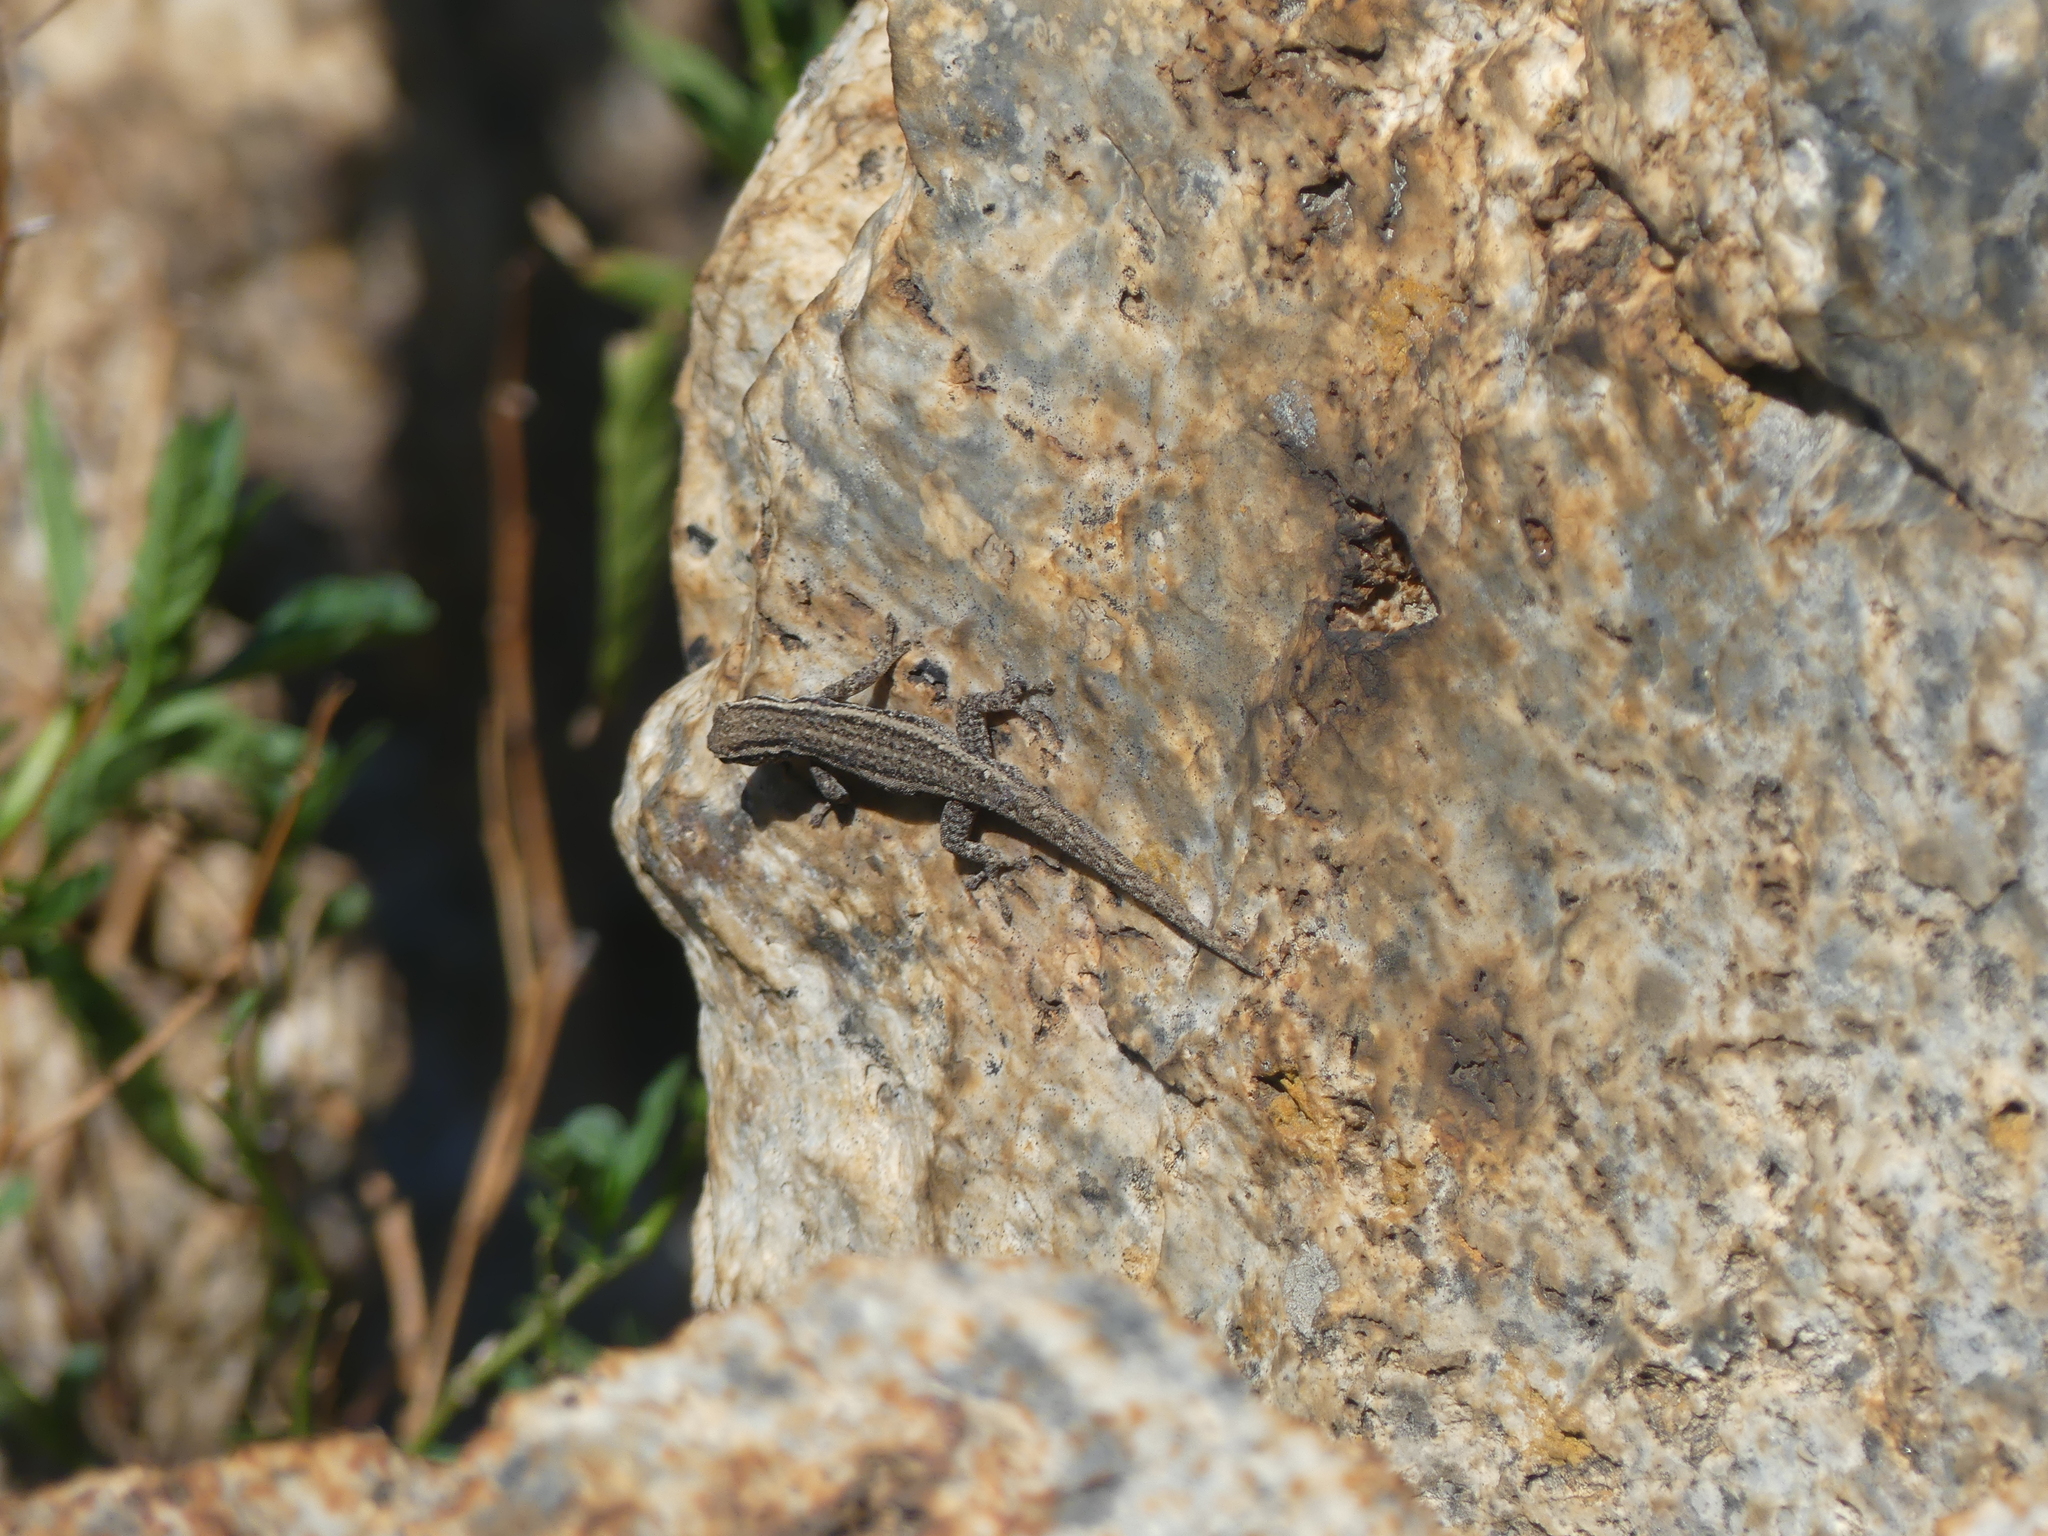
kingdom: Animalia
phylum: Chordata
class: Squamata
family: Gekkonidae
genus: Lygodactylus
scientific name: Lygodactylus capensis
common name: Cape dwarf gecko
